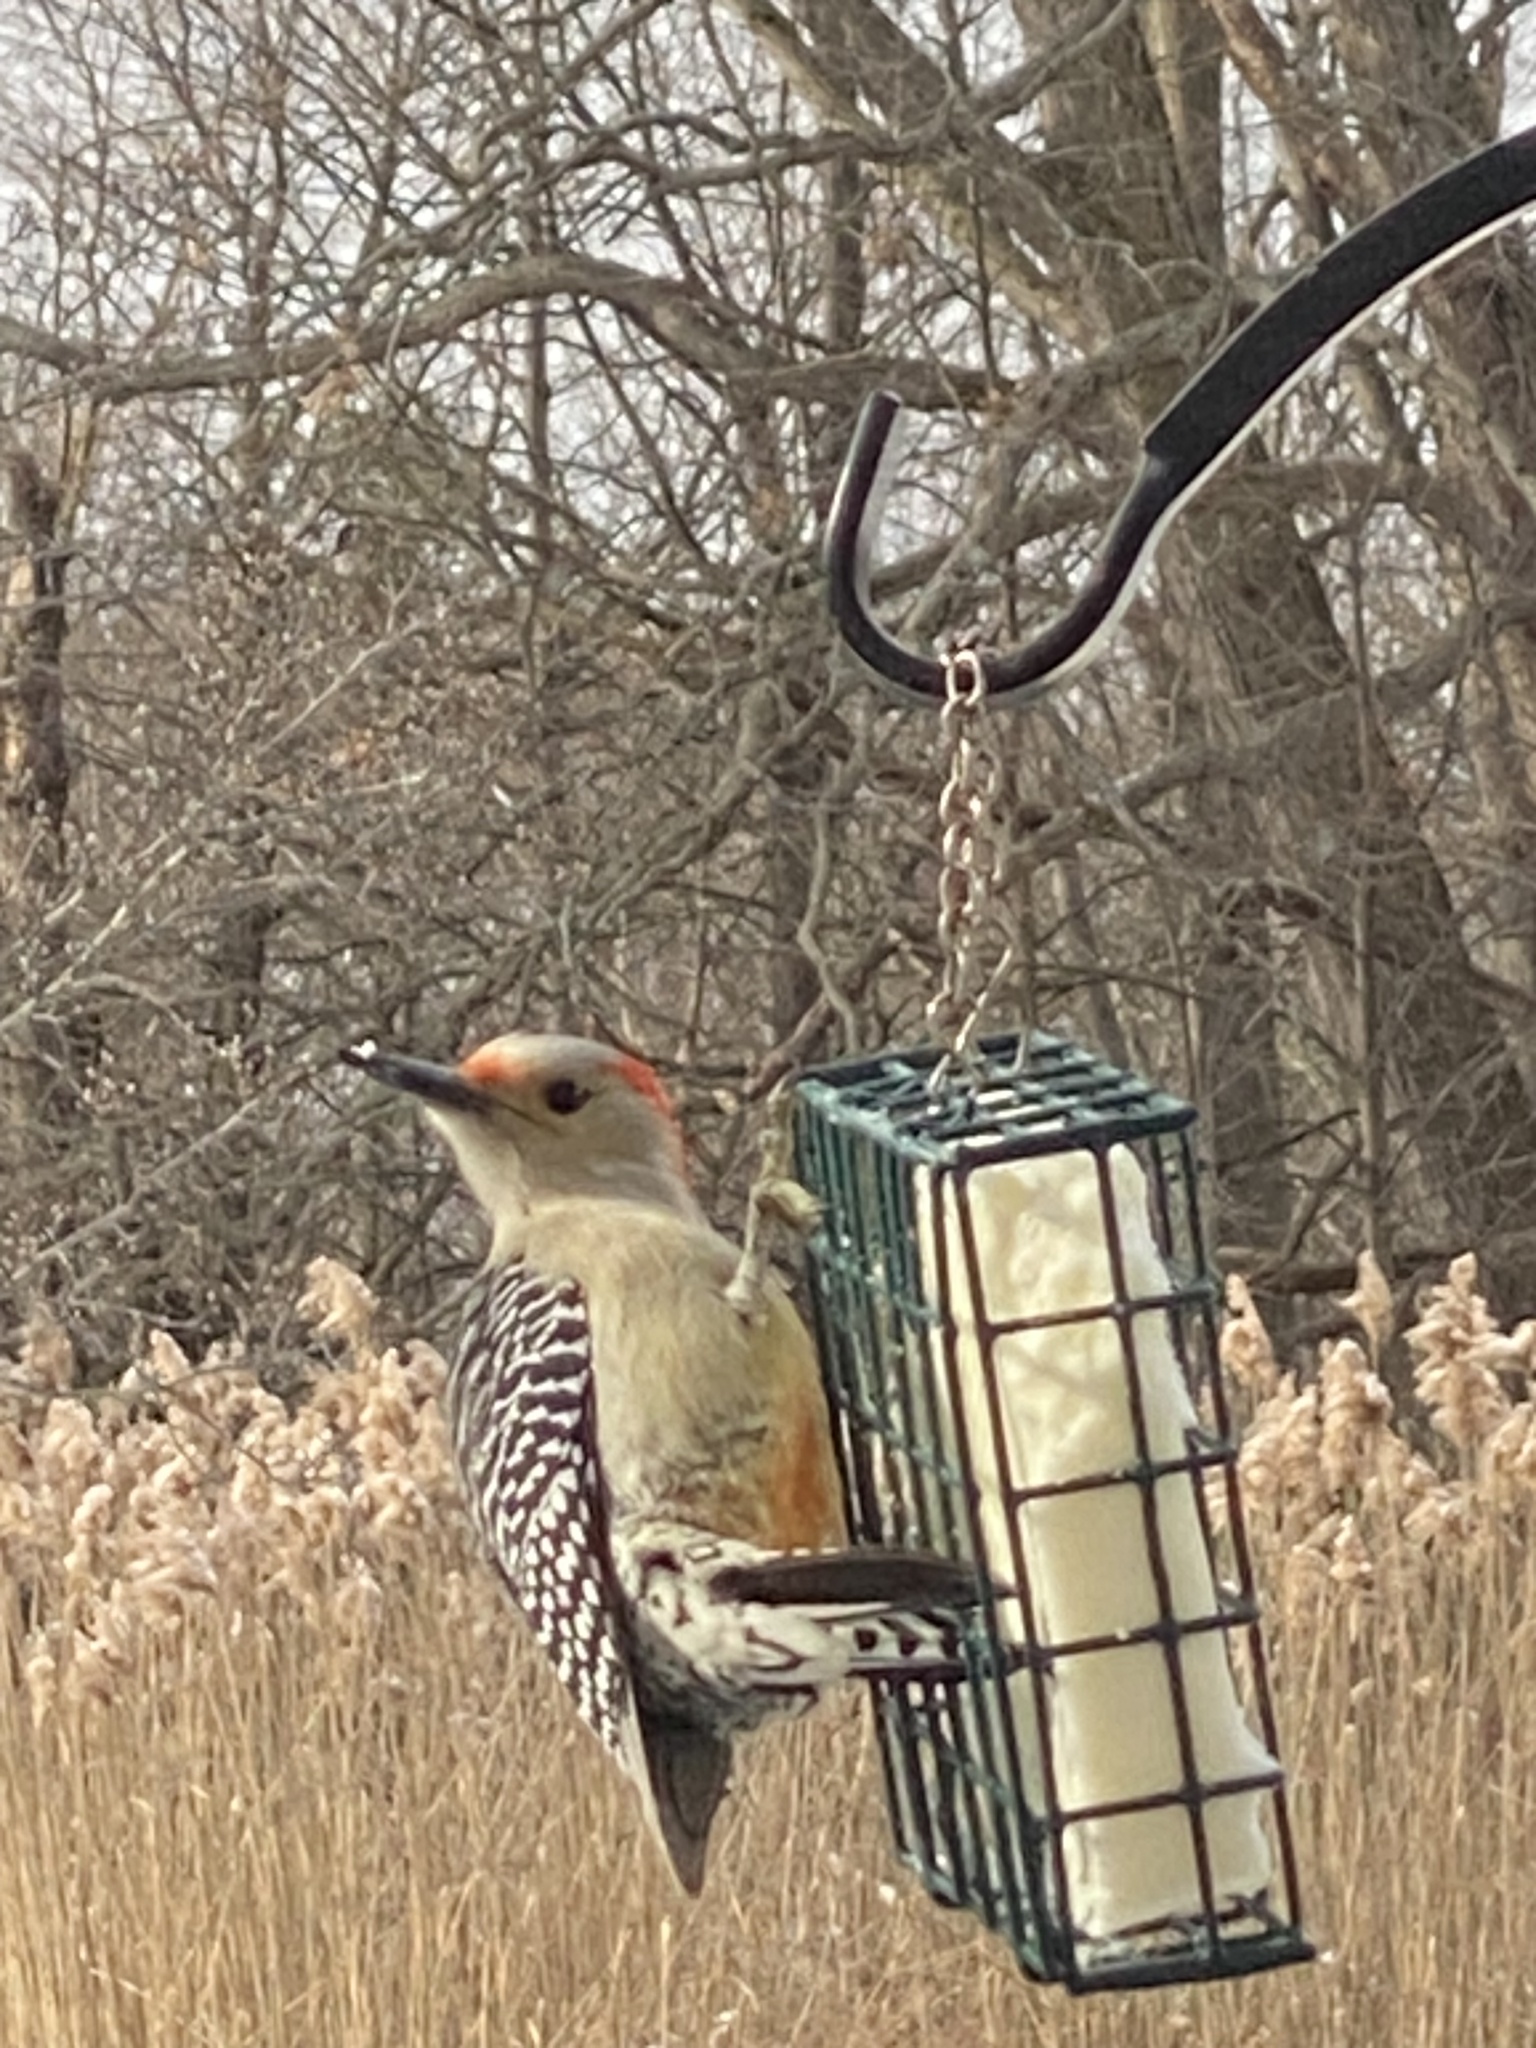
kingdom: Animalia
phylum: Chordata
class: Aves
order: Piciformes
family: Picidae
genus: Melanerpes
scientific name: Melanerpes carolinus
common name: Red-bellied woodpecker
